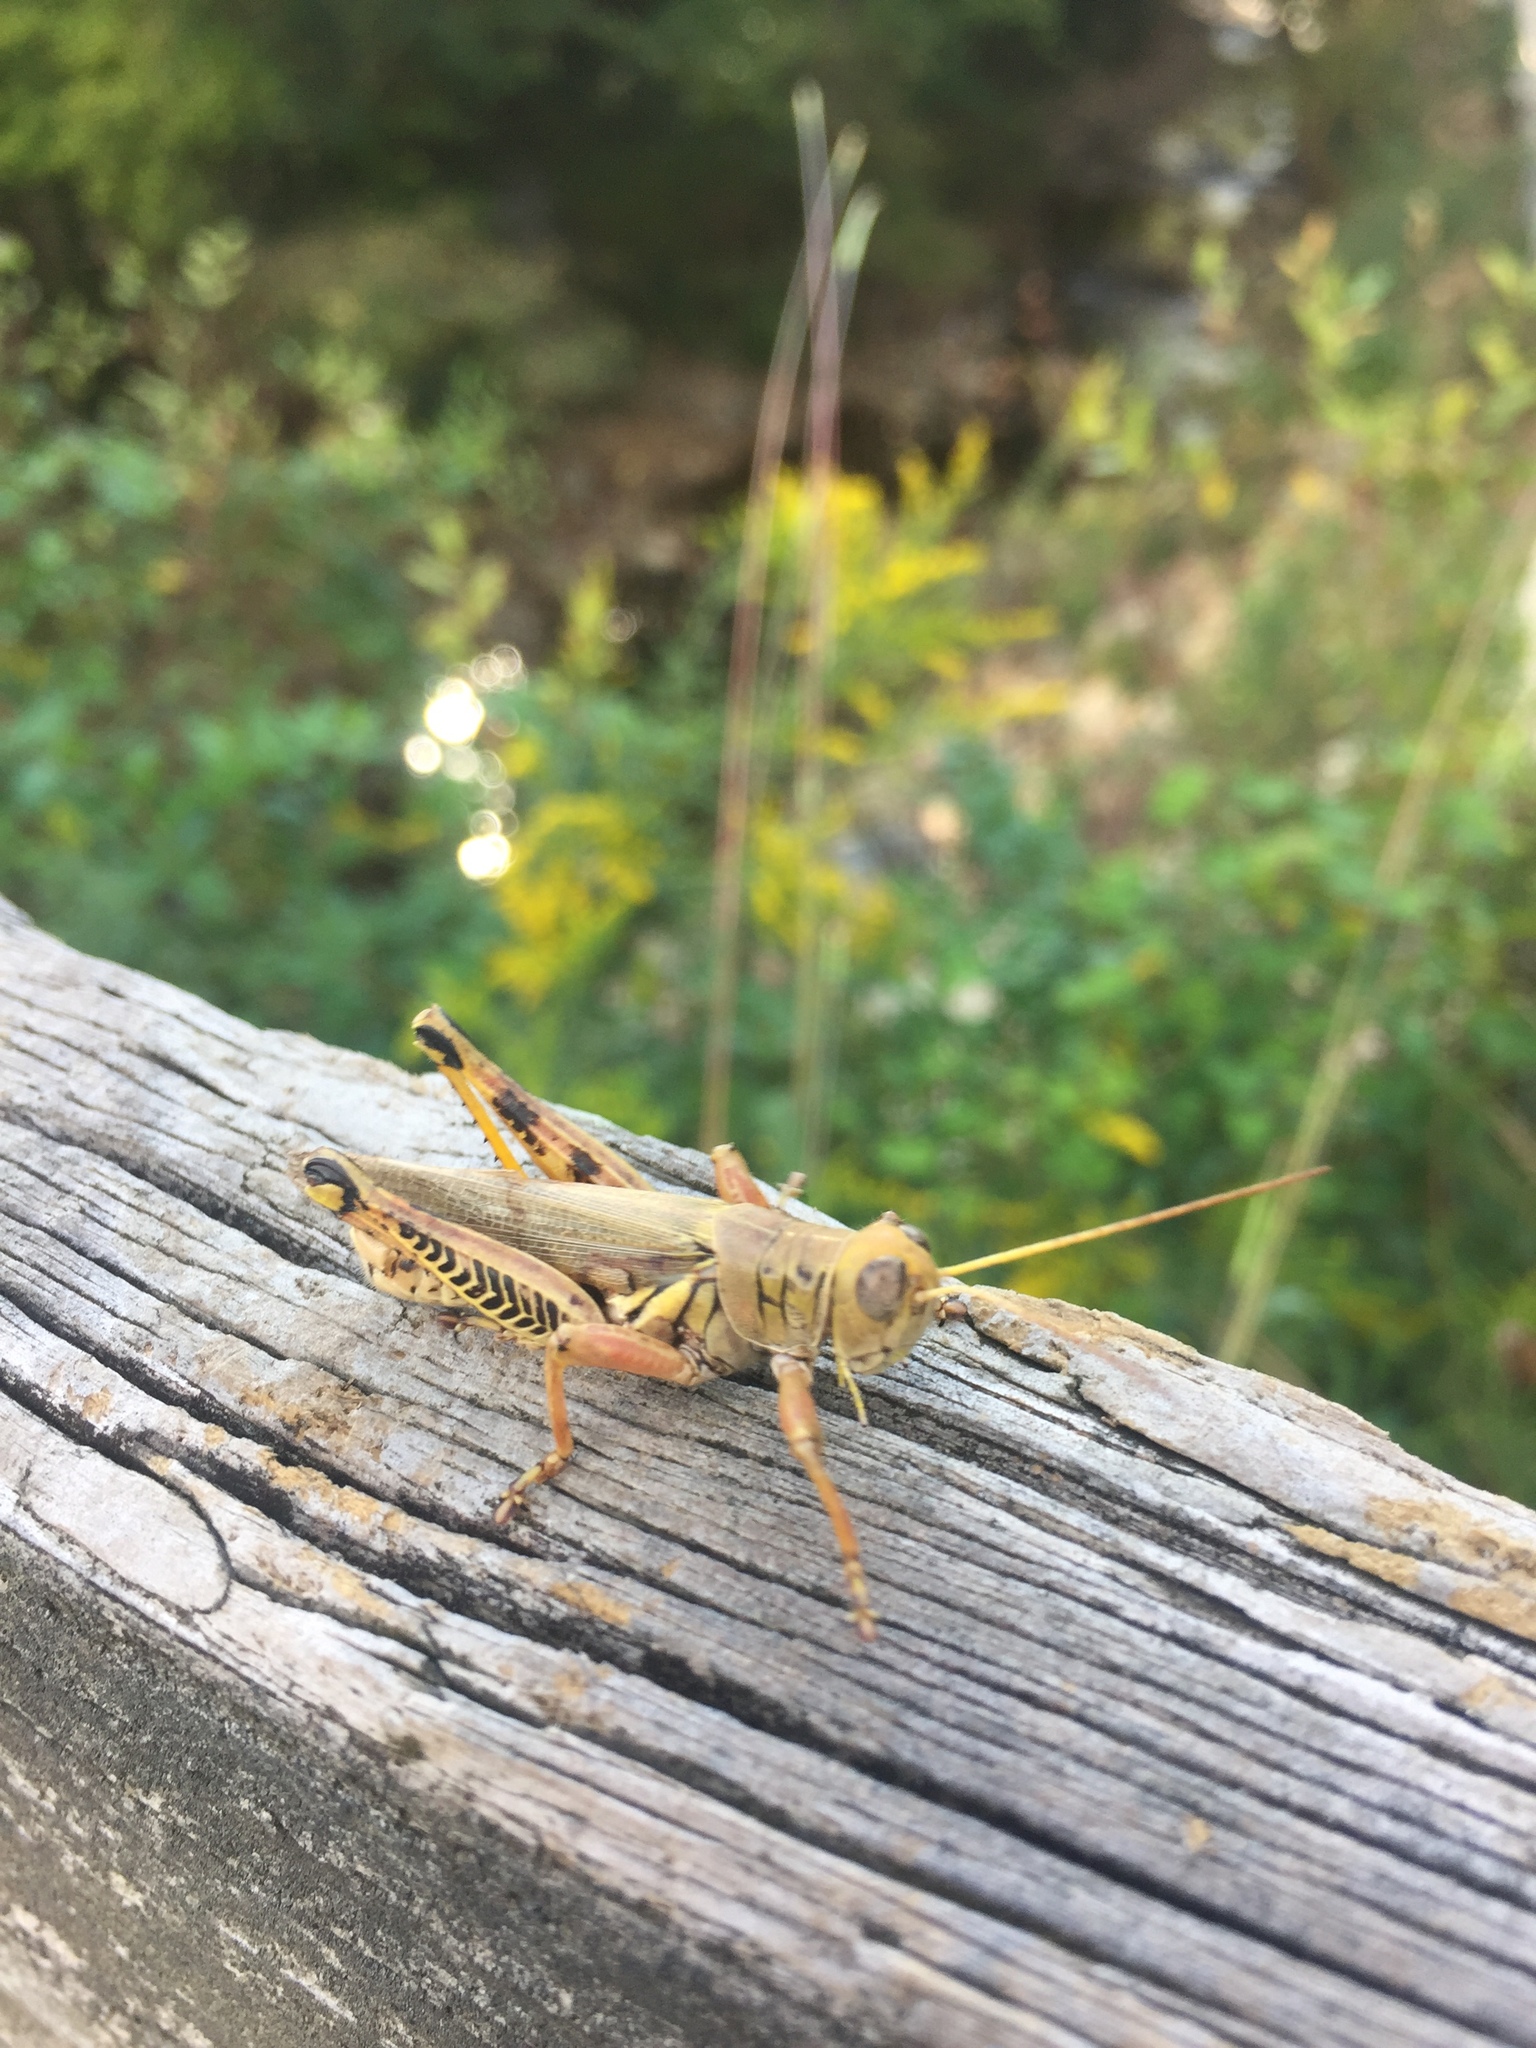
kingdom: Animalia
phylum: Arthropoda
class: Insecta
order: Orthoptera
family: Acrididae
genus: Melanoplus
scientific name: Melanoplus differentialis
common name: Differential grasshopper
